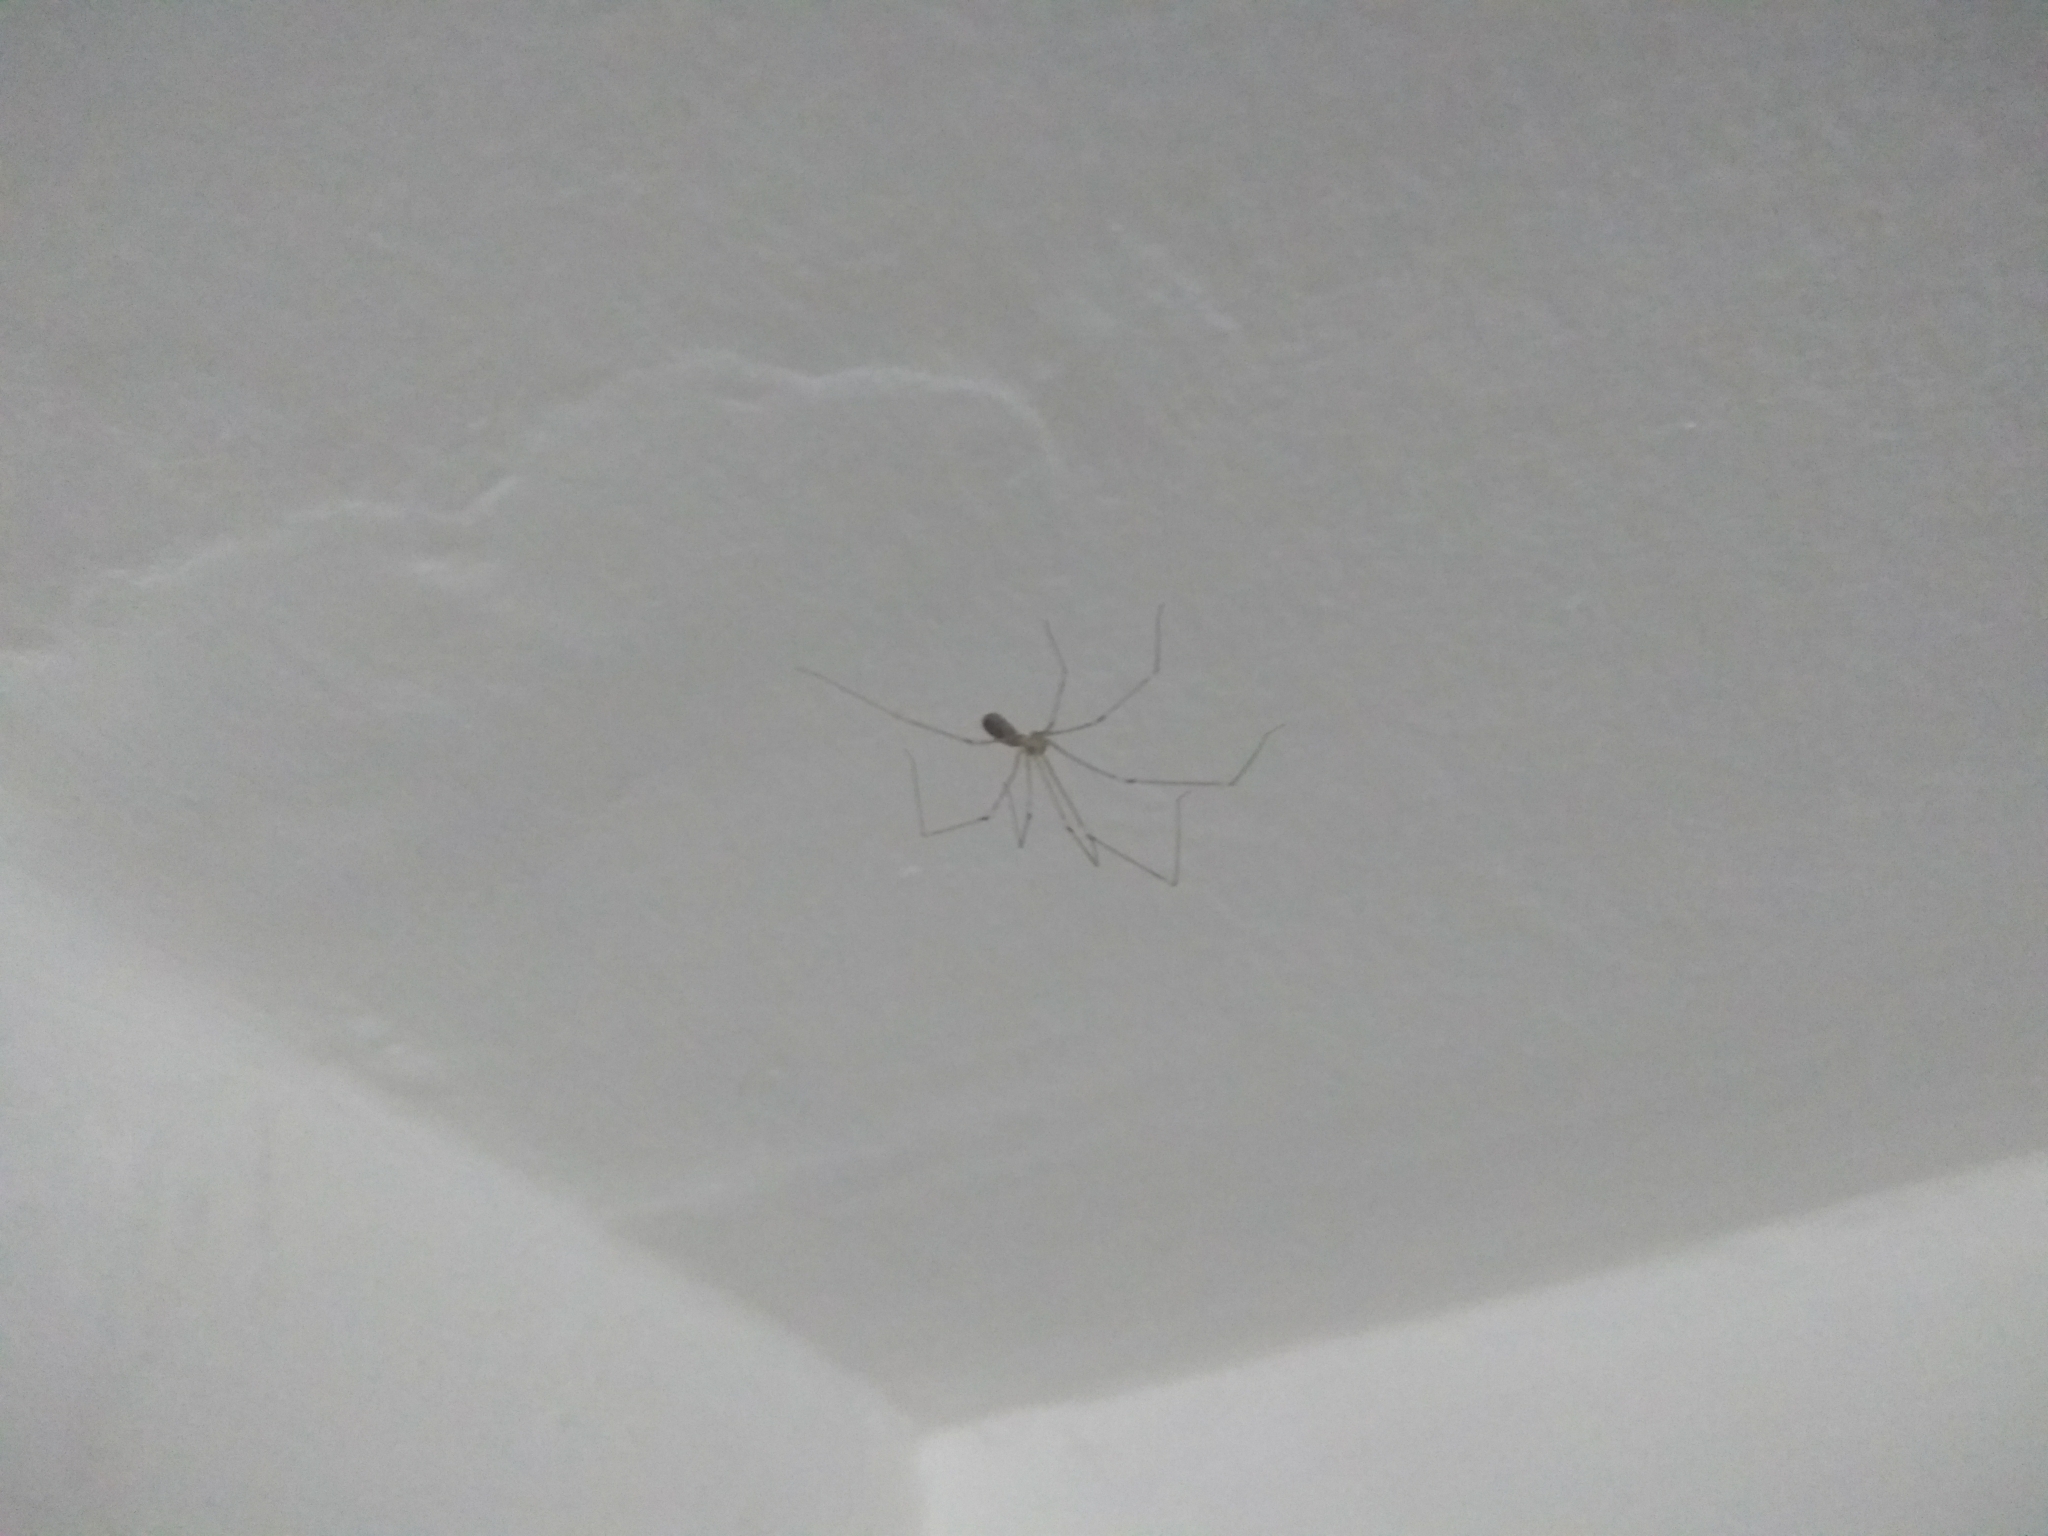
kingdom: Animalia
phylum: Arthropoda
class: Arachnida
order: Araneae
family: Pholcidae
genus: Pholcus
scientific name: Pholcus phalangioides
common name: Longbodied cellar spider
